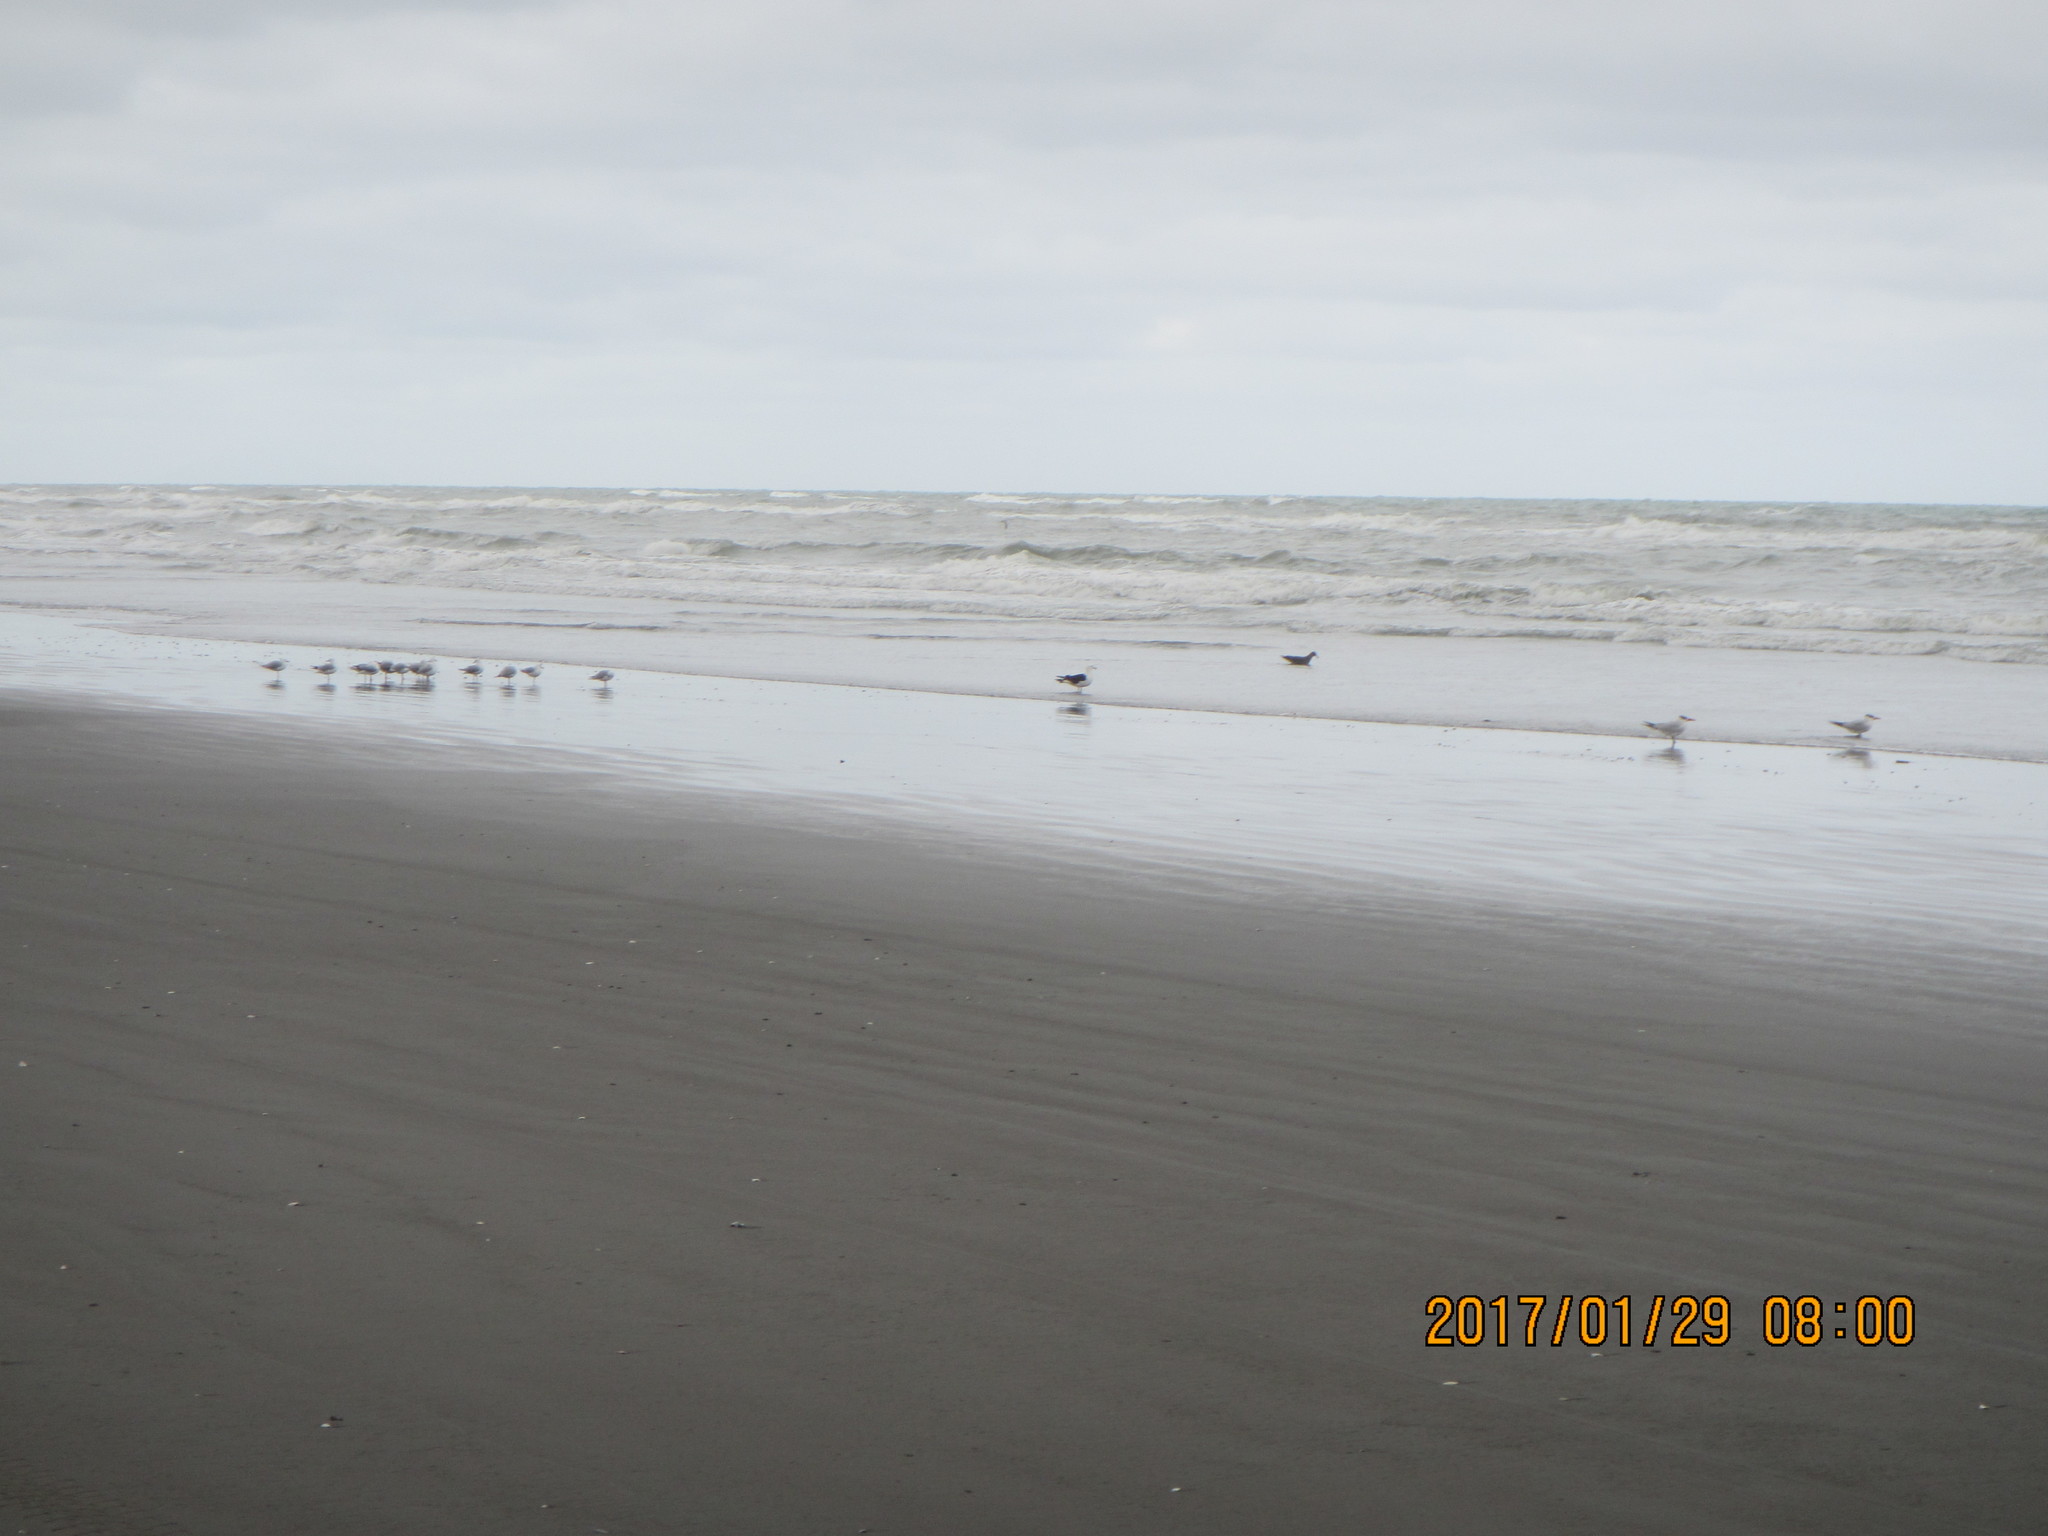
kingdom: Animalia
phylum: Chordata
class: Aves
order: Charadriiformes
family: Laridae
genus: Chroicocephalus
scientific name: Chroicocephalus novaehollandiae
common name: Silver gull
